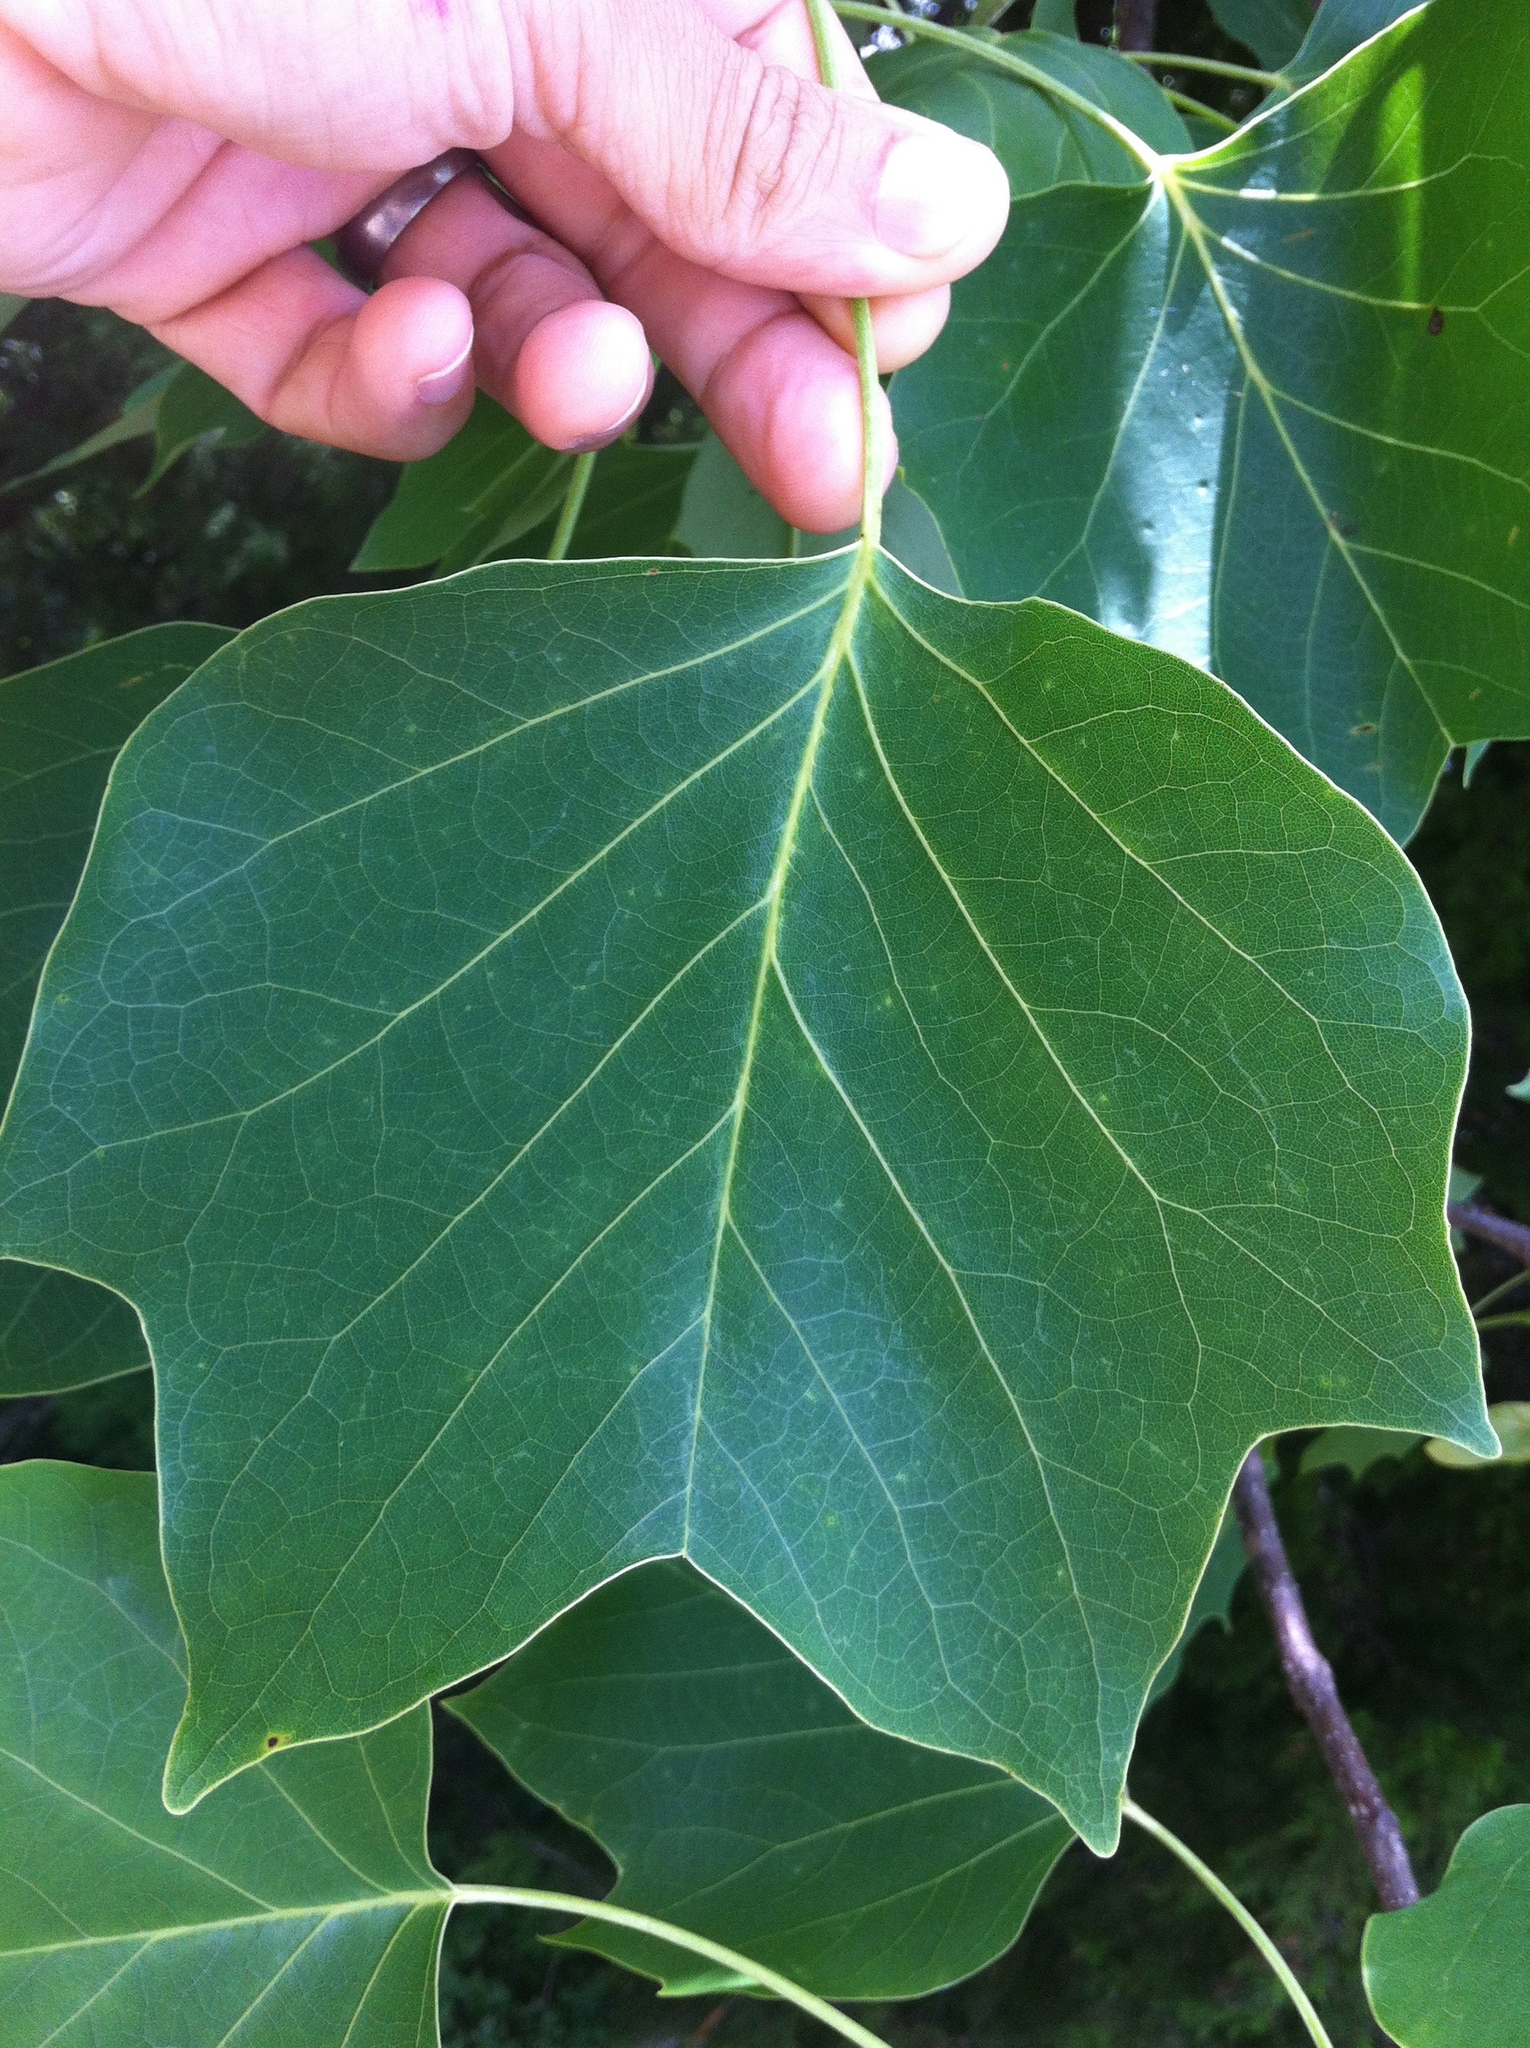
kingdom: Plantae
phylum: Tracheophyta
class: Magnoliopsida
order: Magnoliales
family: Magnoliaceae
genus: Liriodendron
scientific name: Liriodendron tulipifera
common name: Tulip tree
